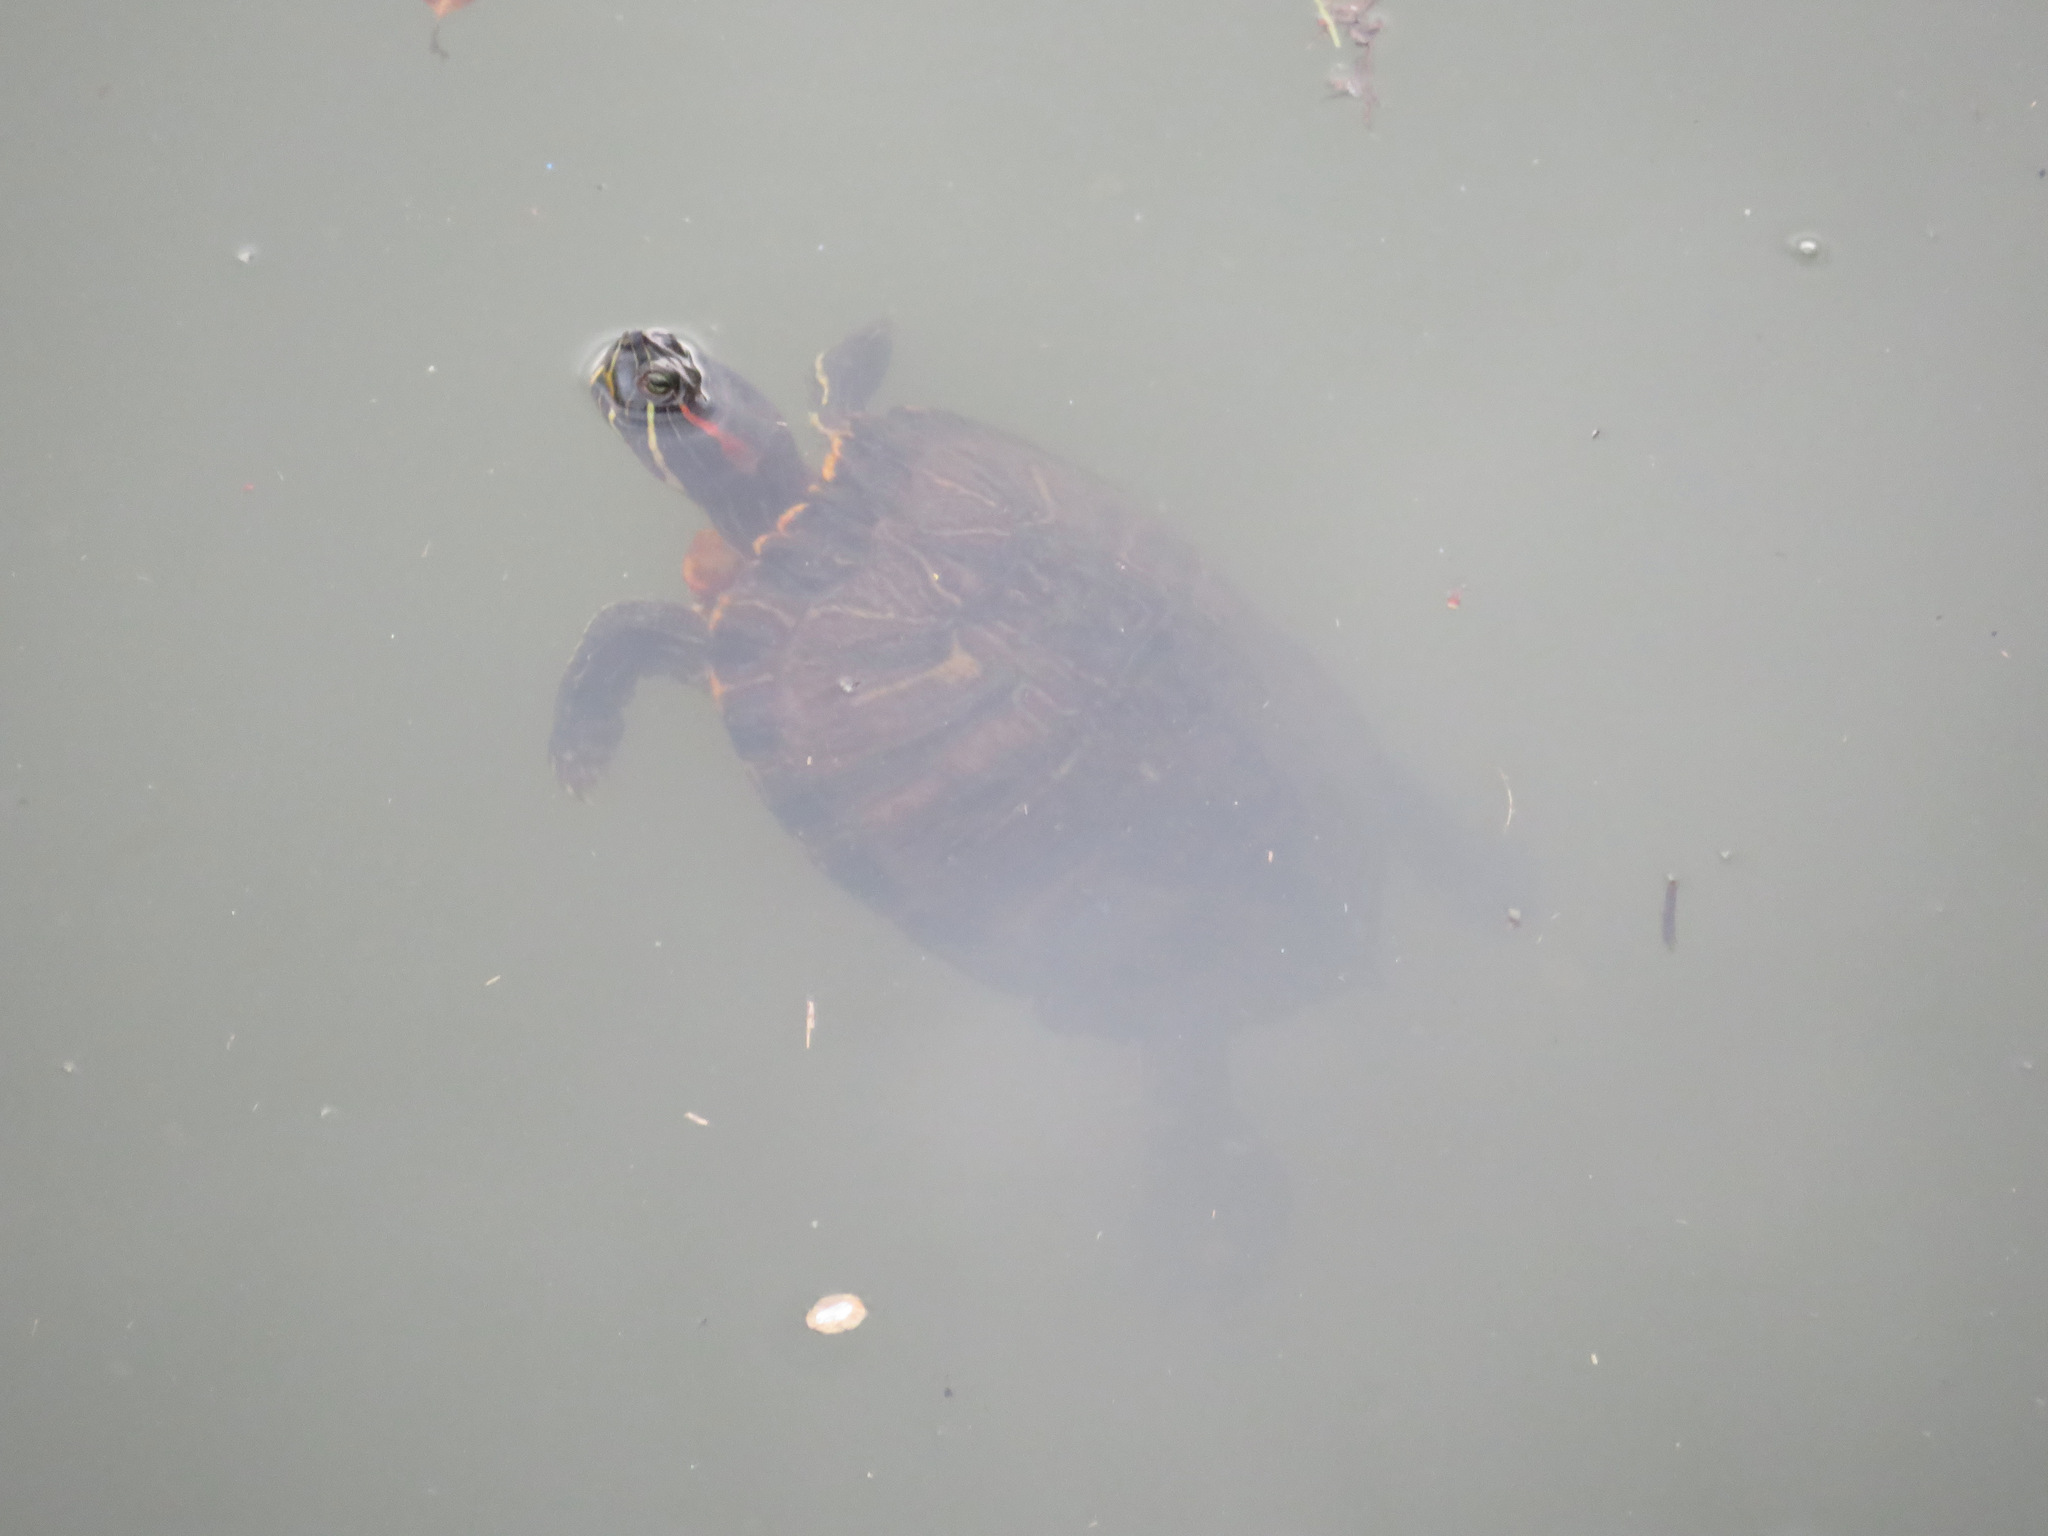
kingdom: Animalia
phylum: Chordata
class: Testudines
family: Emydidae
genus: Trachemys
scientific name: Trachemys scripta
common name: Slider
